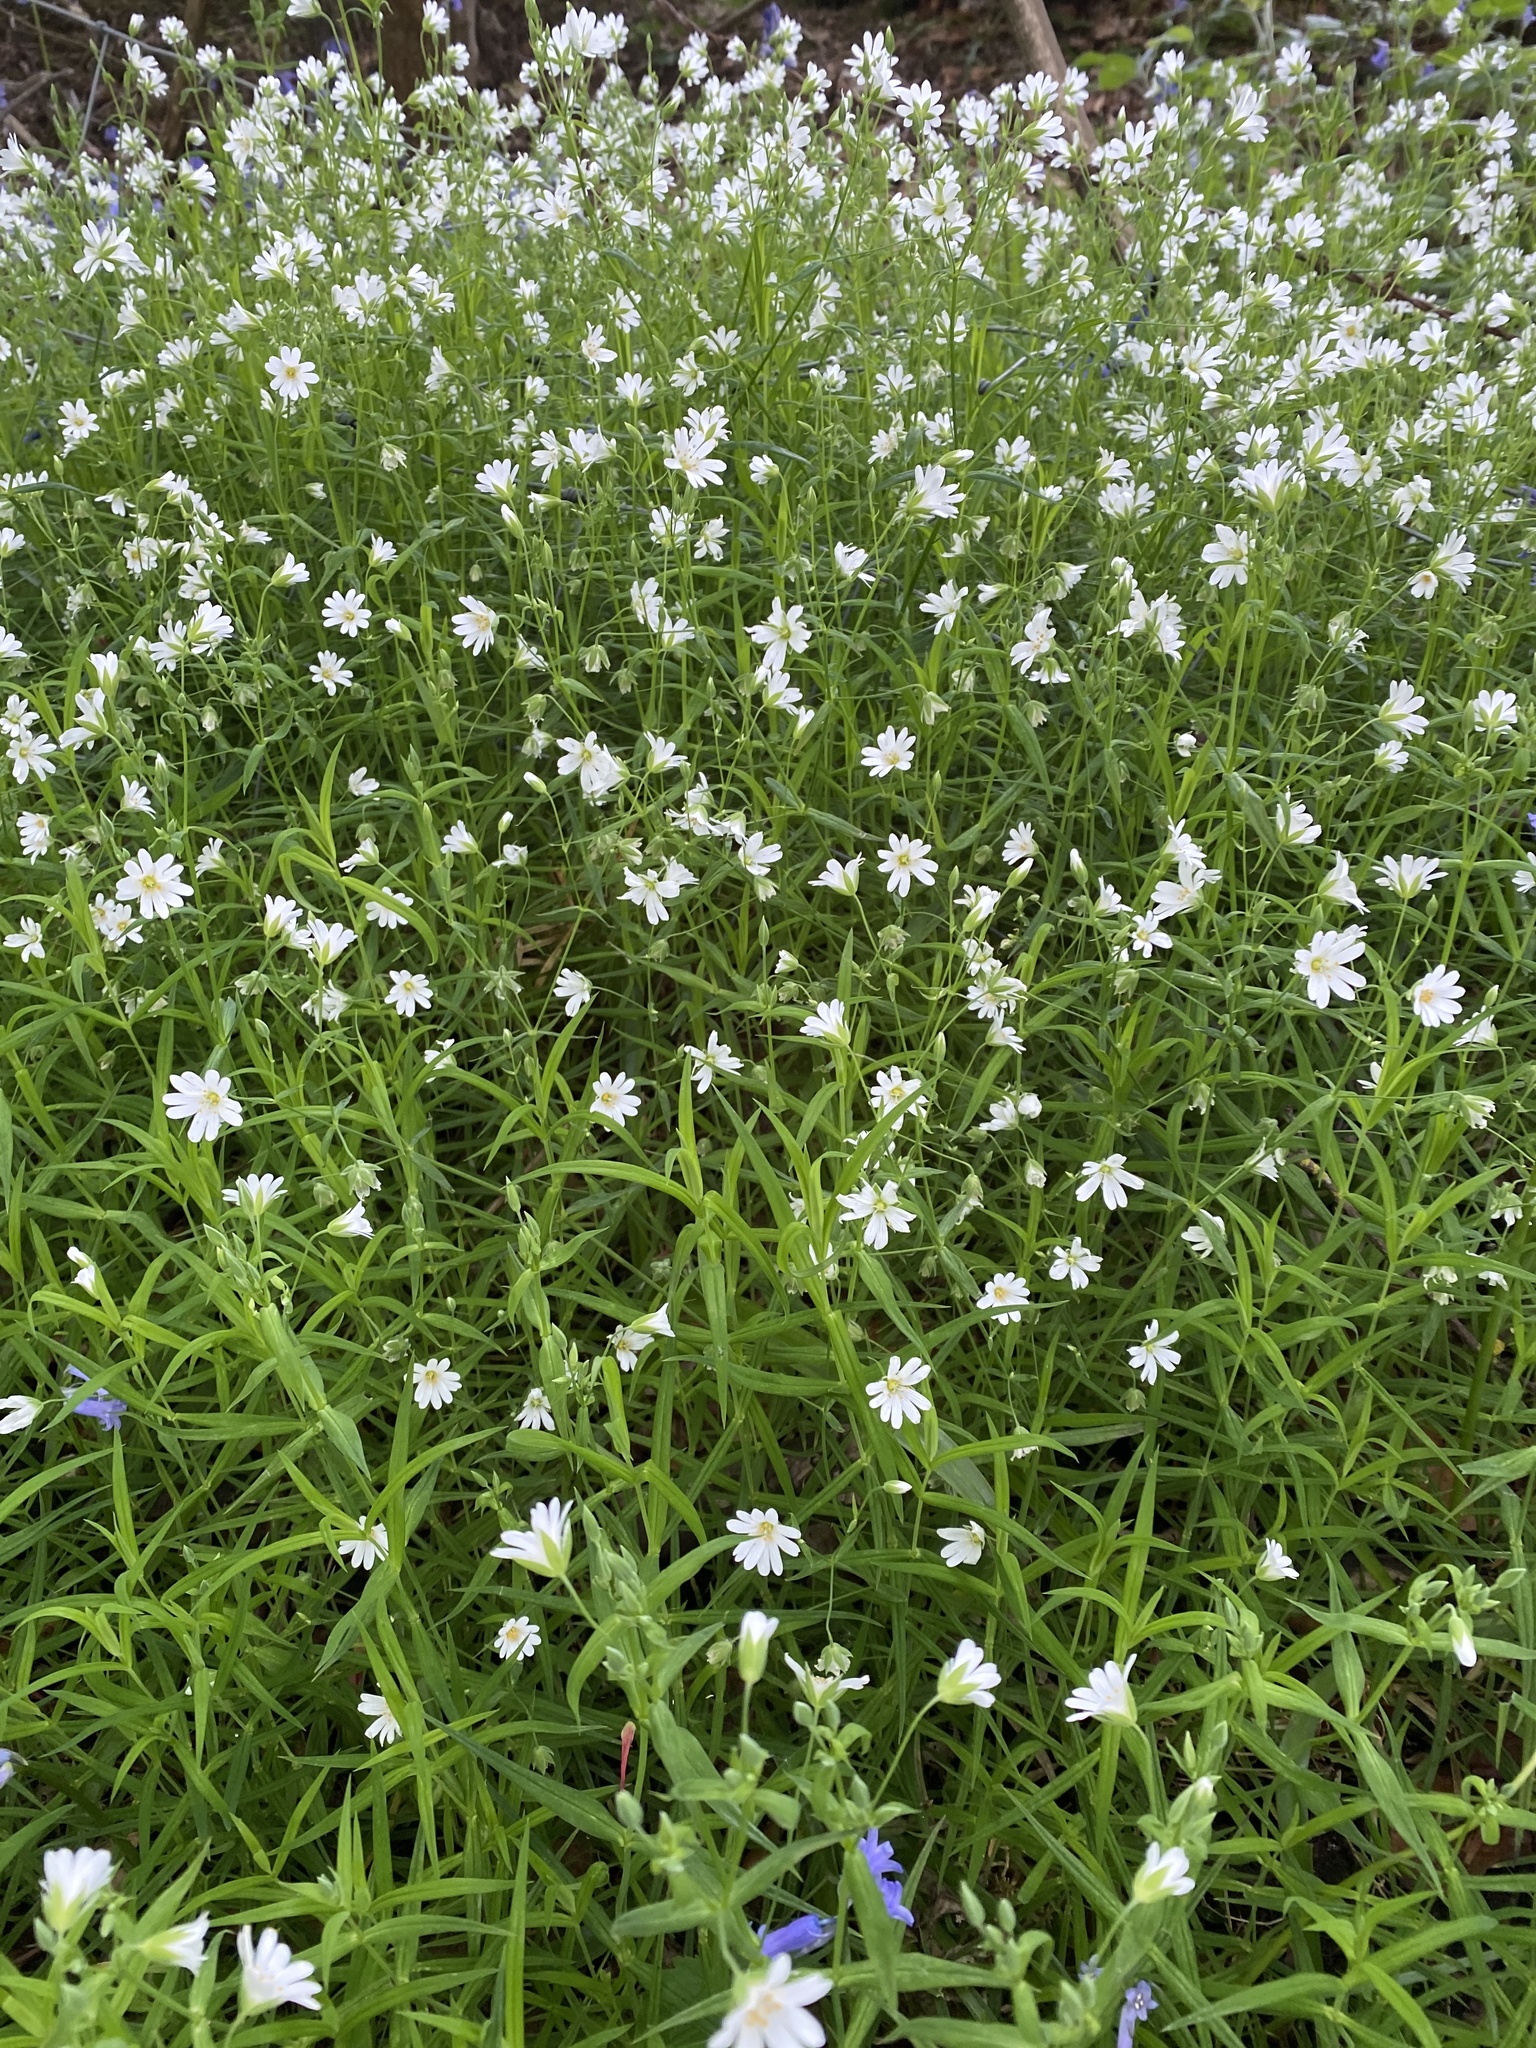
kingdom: Plantae
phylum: Tracheophyta
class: Magnoliopsida
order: Caryophyllales
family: Caryophyllaceae
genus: Rabelera
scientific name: Rabelera holostea
